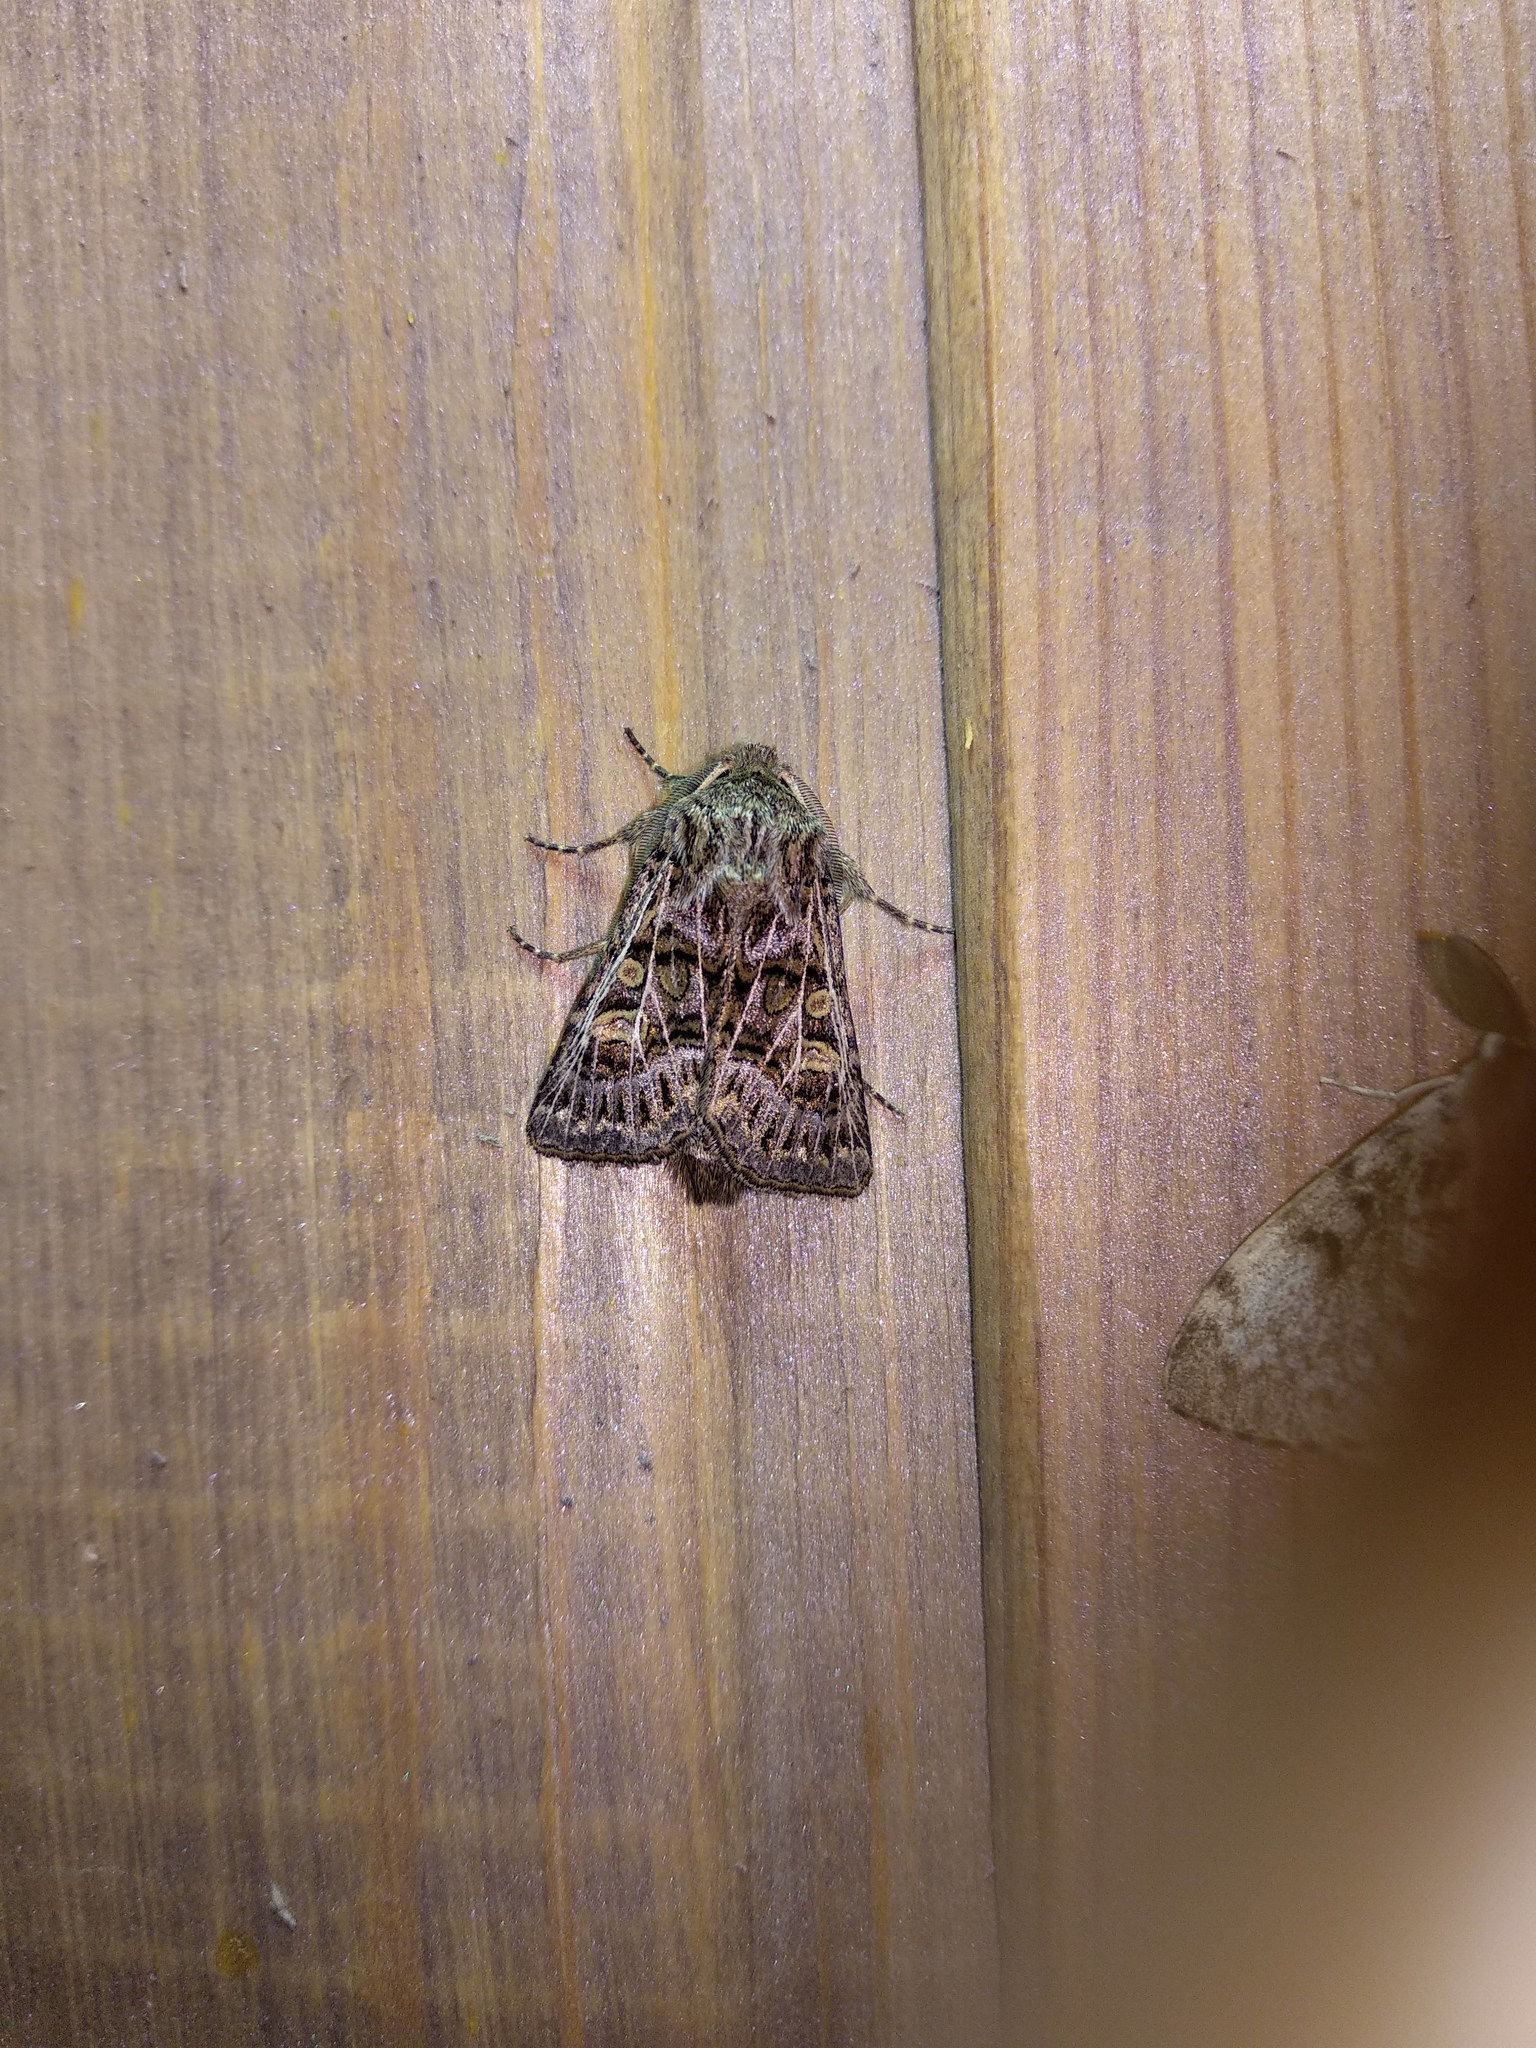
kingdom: Animalia
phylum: Arthropoda
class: Insecta
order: Lepidoptera
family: Noctuidae
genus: Tholera
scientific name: Tholera decimalis
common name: Feathered gothic
